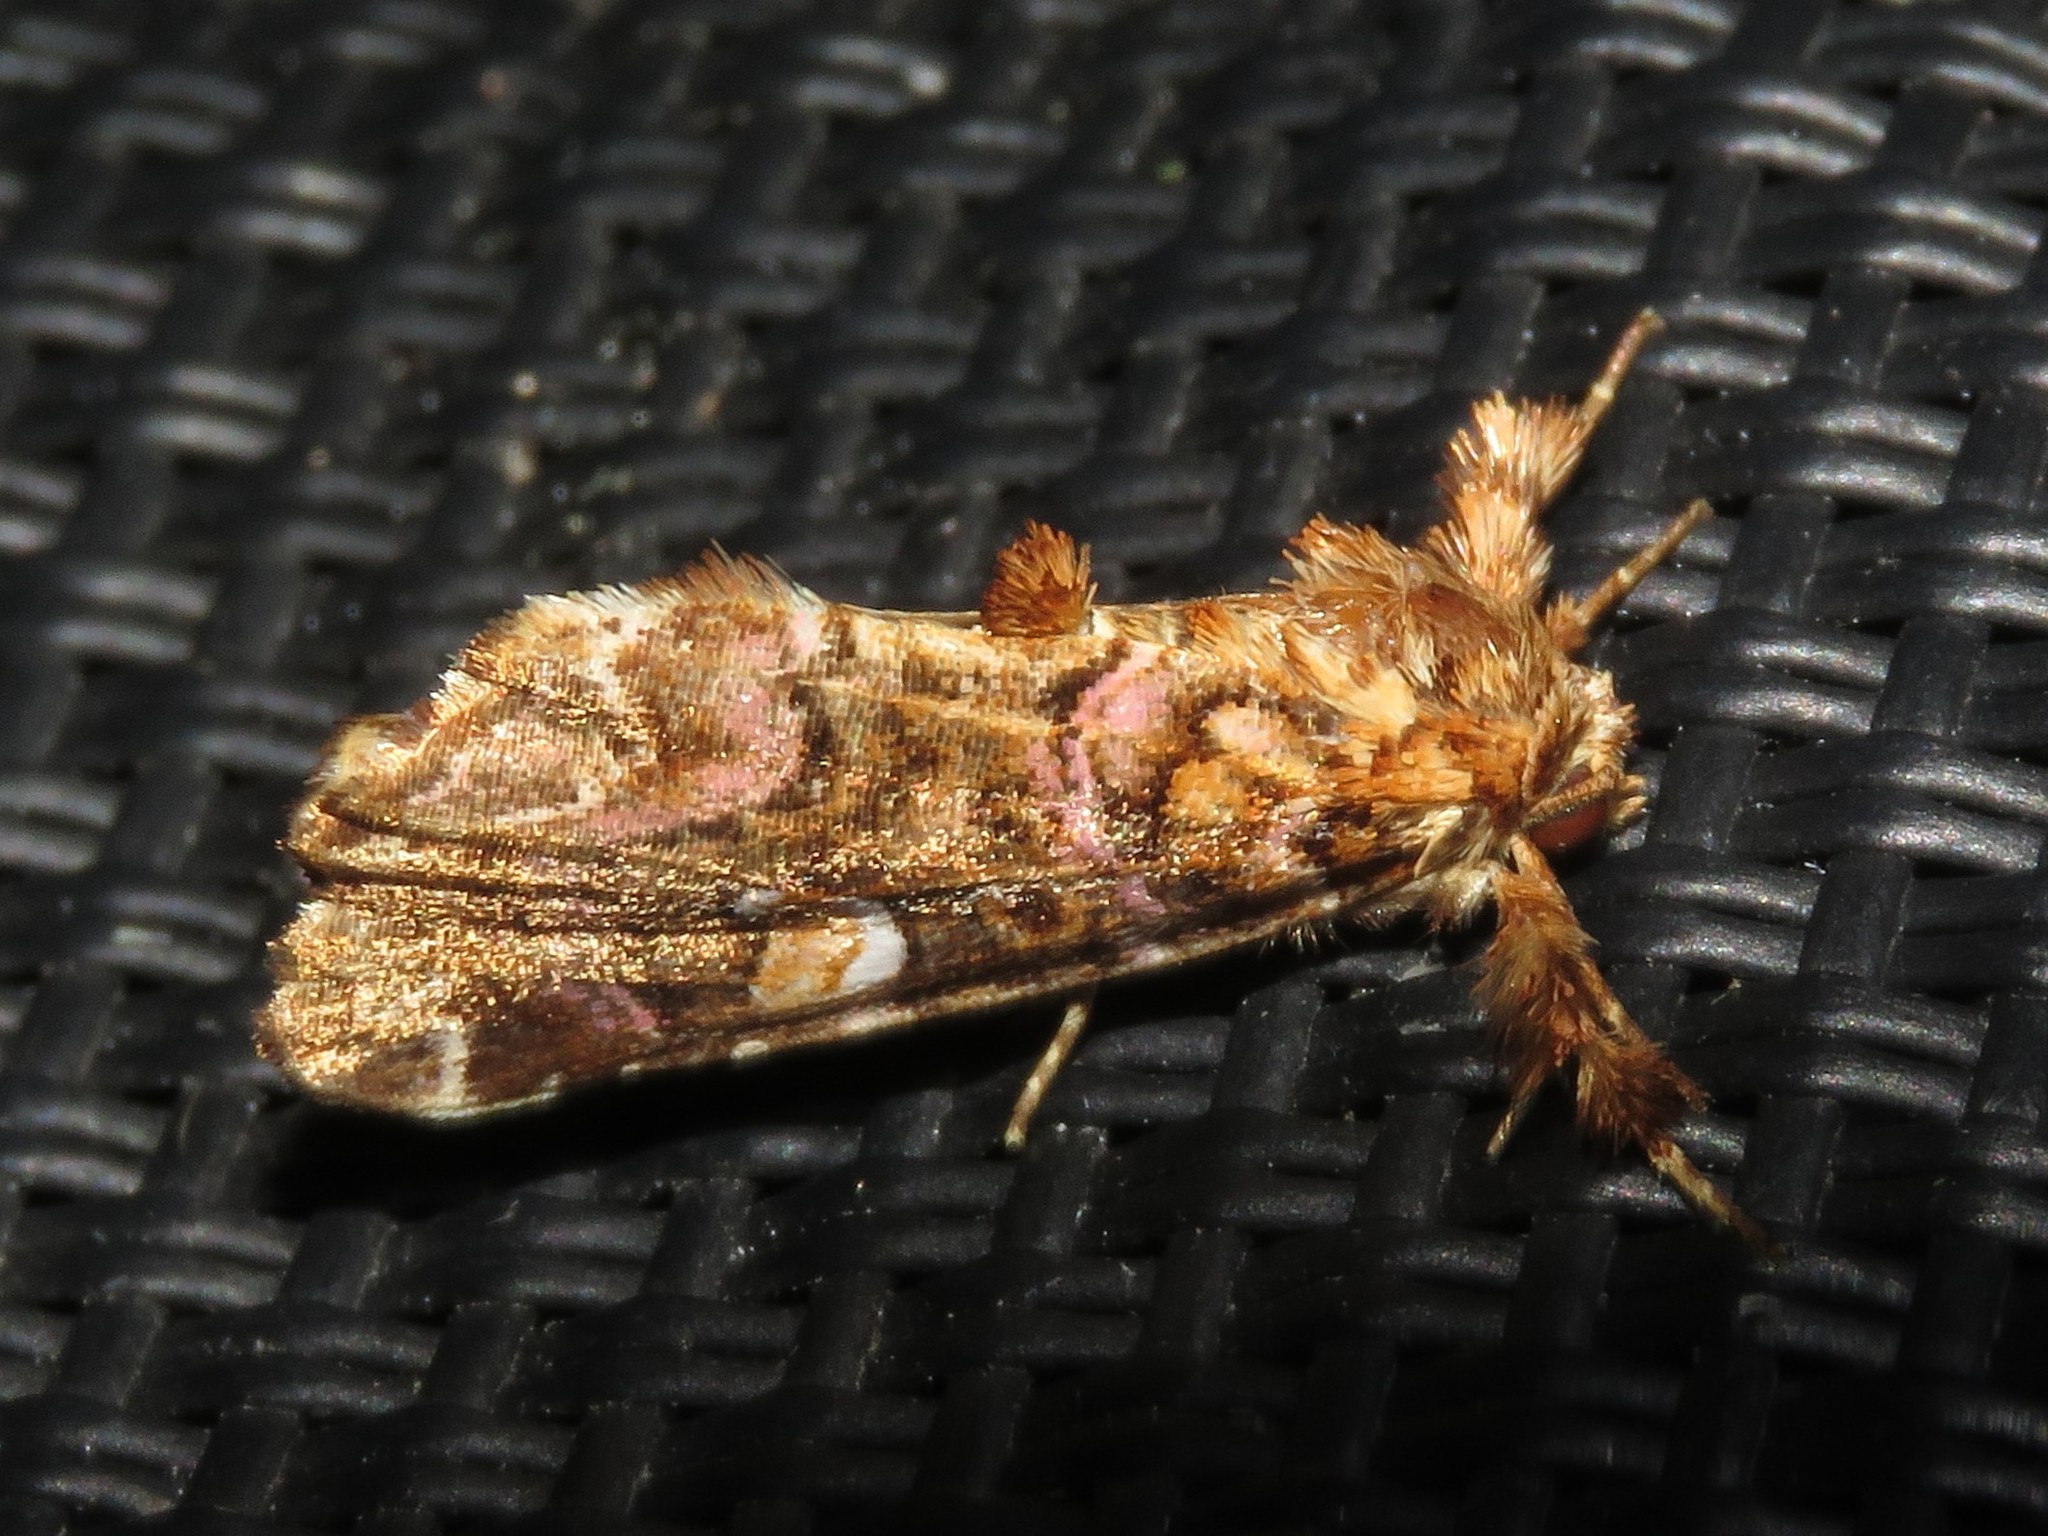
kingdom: Animalia
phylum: Arthropoda
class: Insecta
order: Lepidoptera
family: Noctuidae
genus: Callopistria
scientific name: Callopistria mollissima
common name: Pink-shaded fern moth
